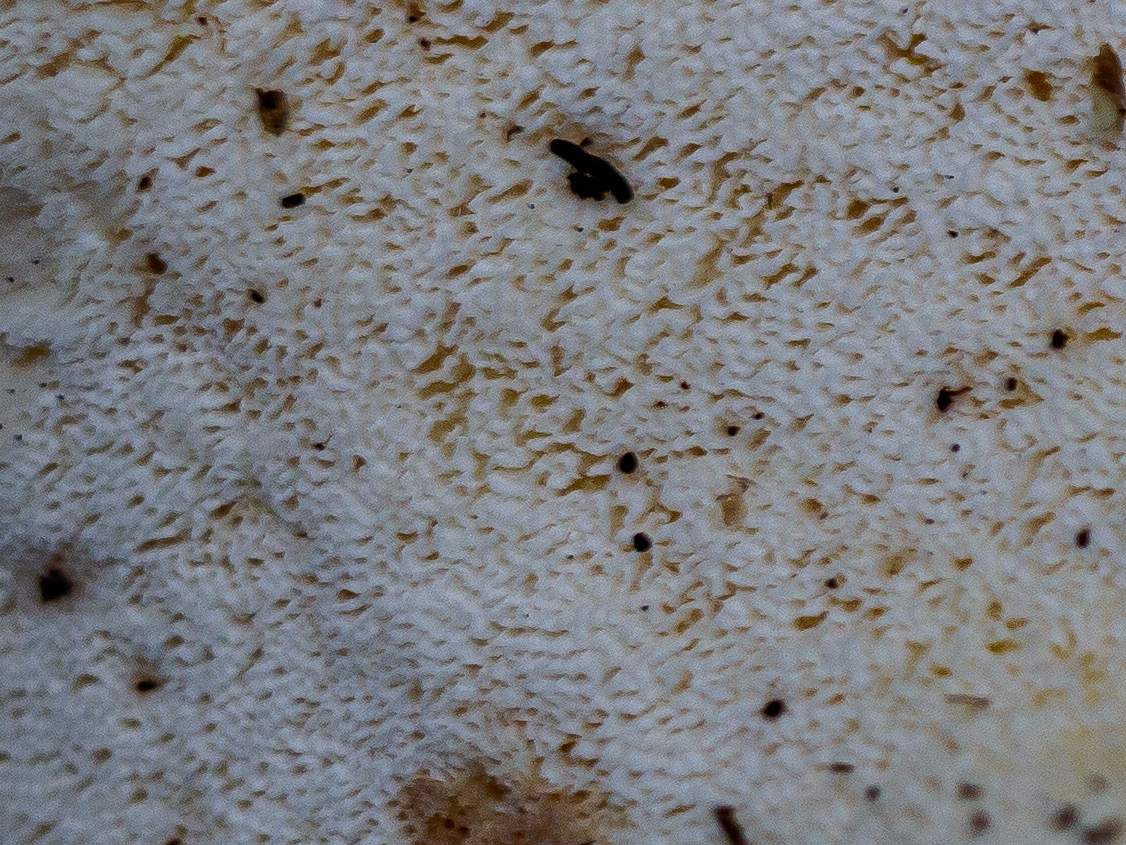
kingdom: Fungi
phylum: Basidiomycota
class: Agaricomycetes
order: Russulales
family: Albatrellaceae
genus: Albatrellus
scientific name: Albatrellus subrubescens
